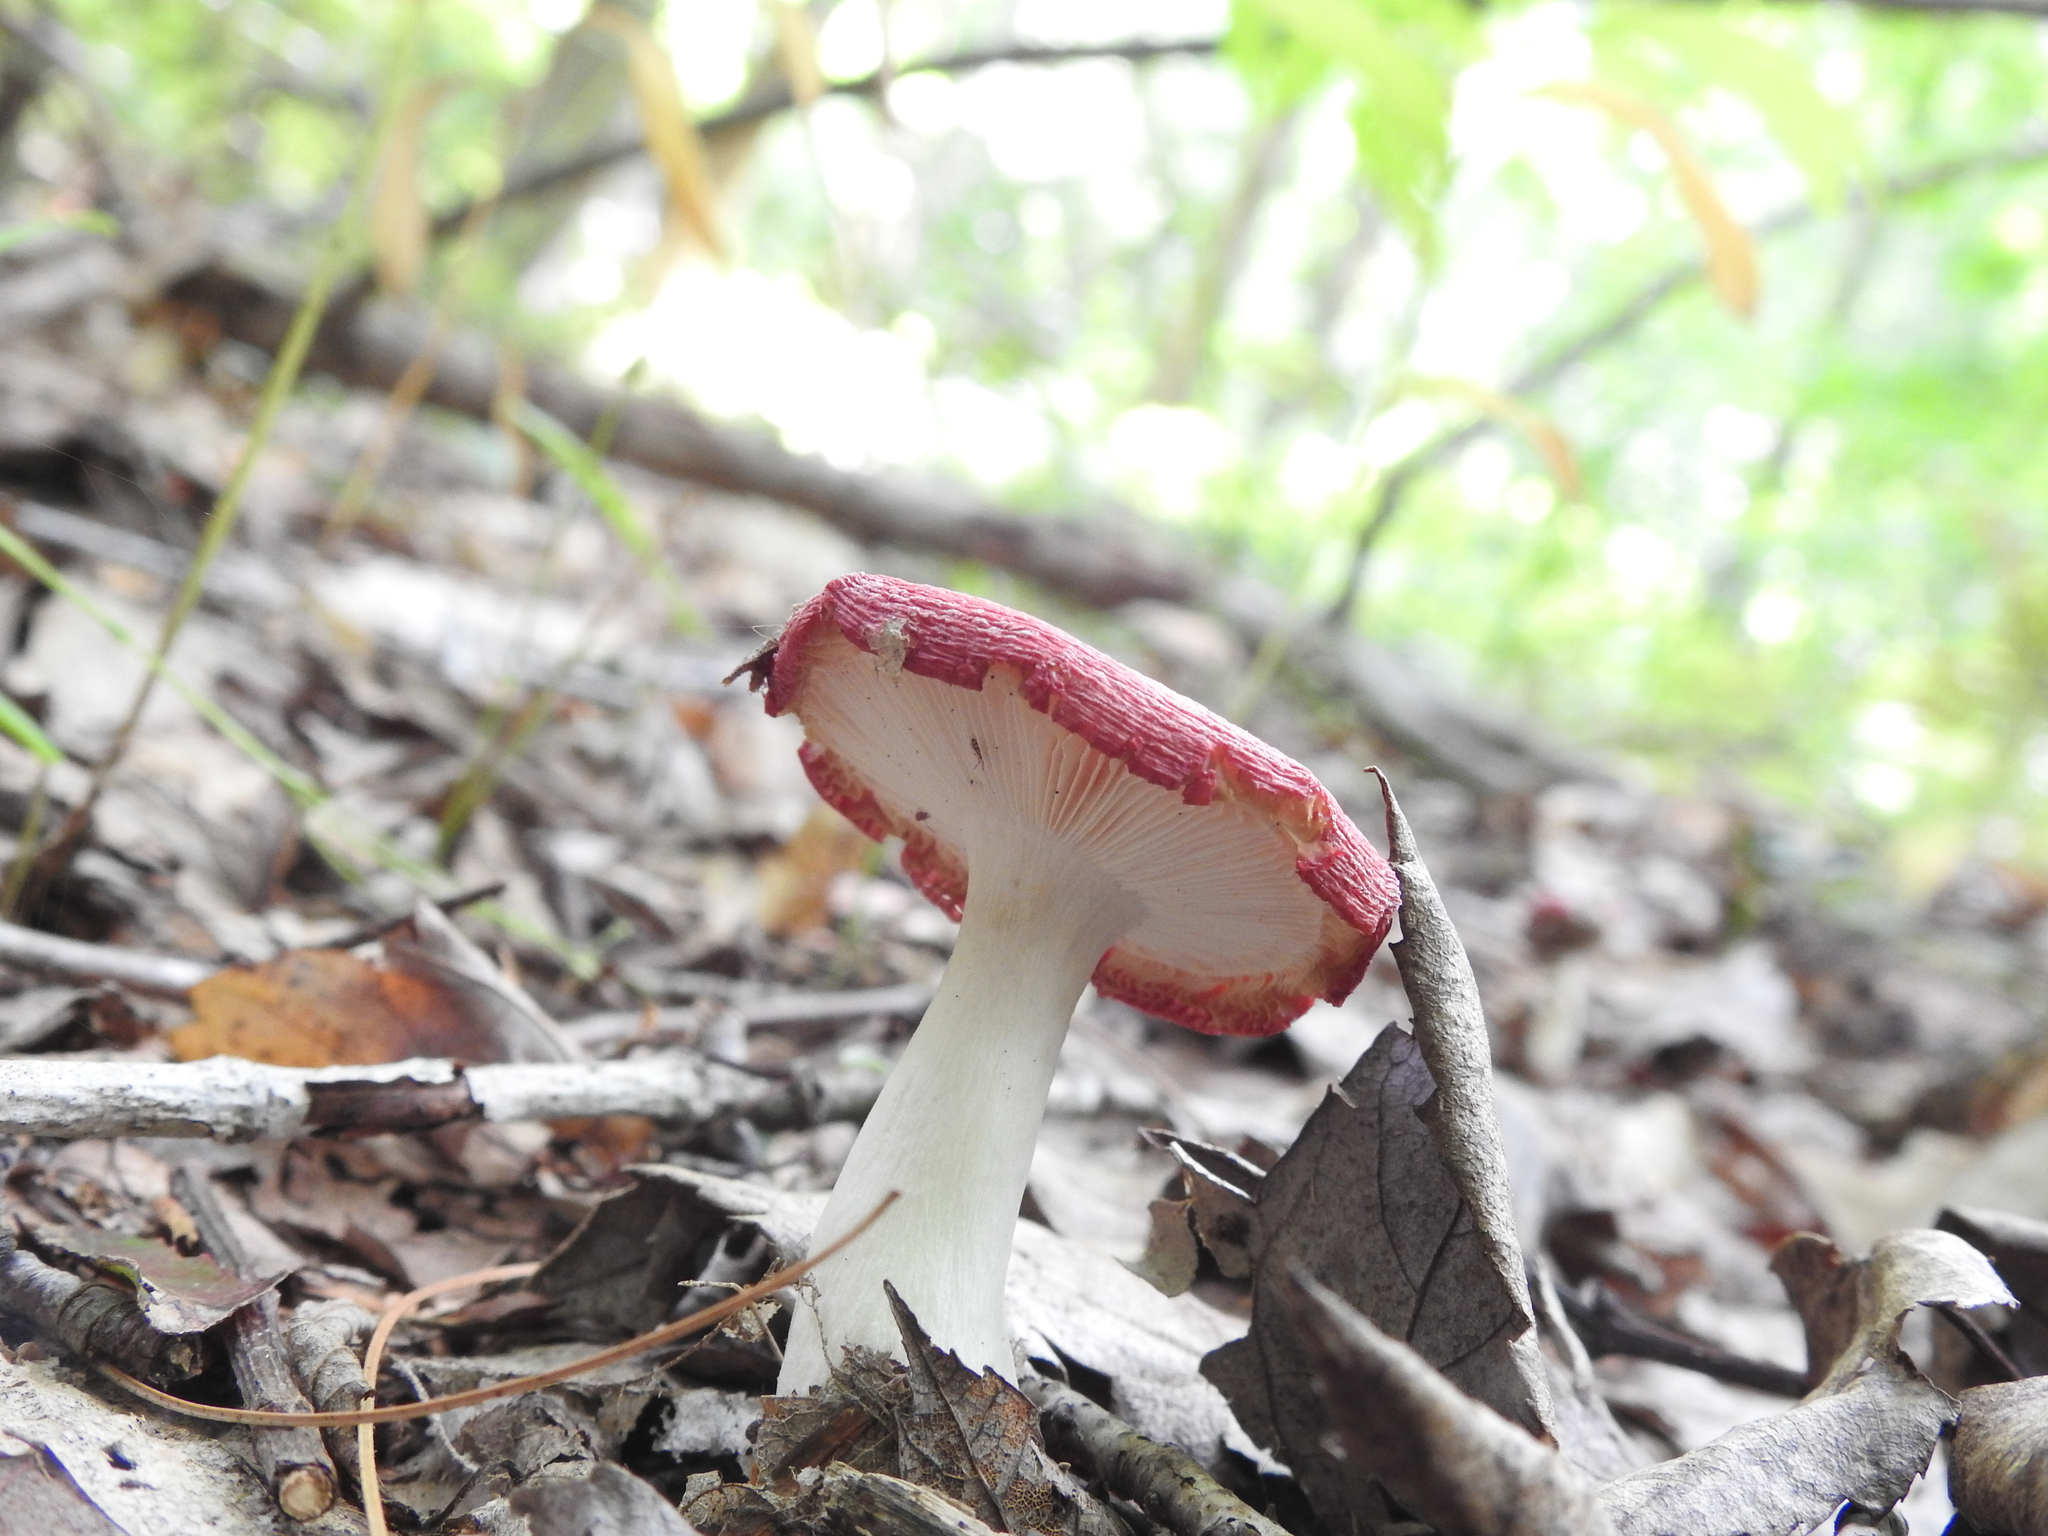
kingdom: Fungi
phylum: Basidiomycota
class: Agaricomycetes
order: Russulales
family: Russulaceae
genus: Russula
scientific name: Russula
